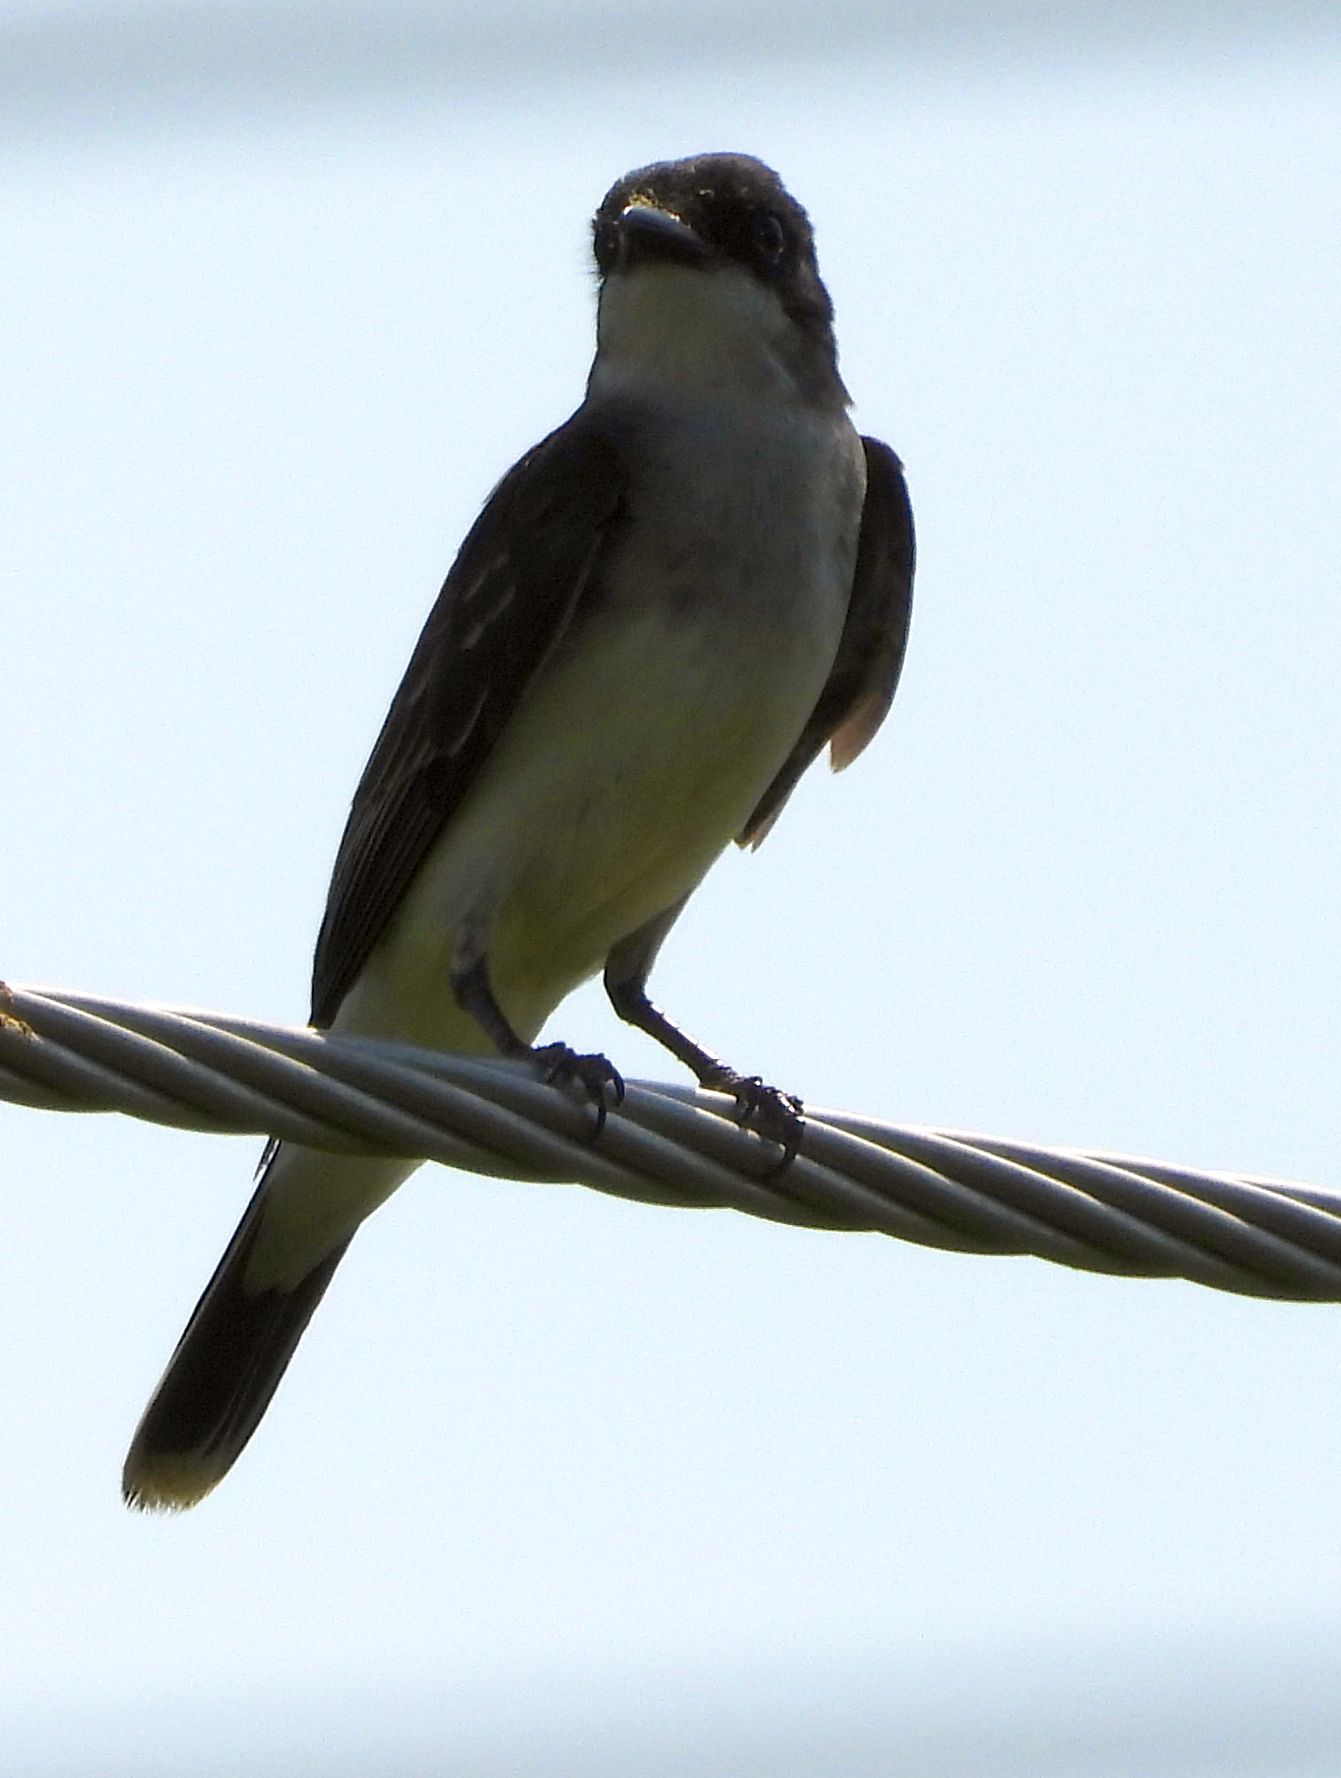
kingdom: Animalia
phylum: Chordata
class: Aves
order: Passeriformes
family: Tyrannidae
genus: Tyrannus
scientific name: Tyrannus tyrannus
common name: Eastern kingbird
